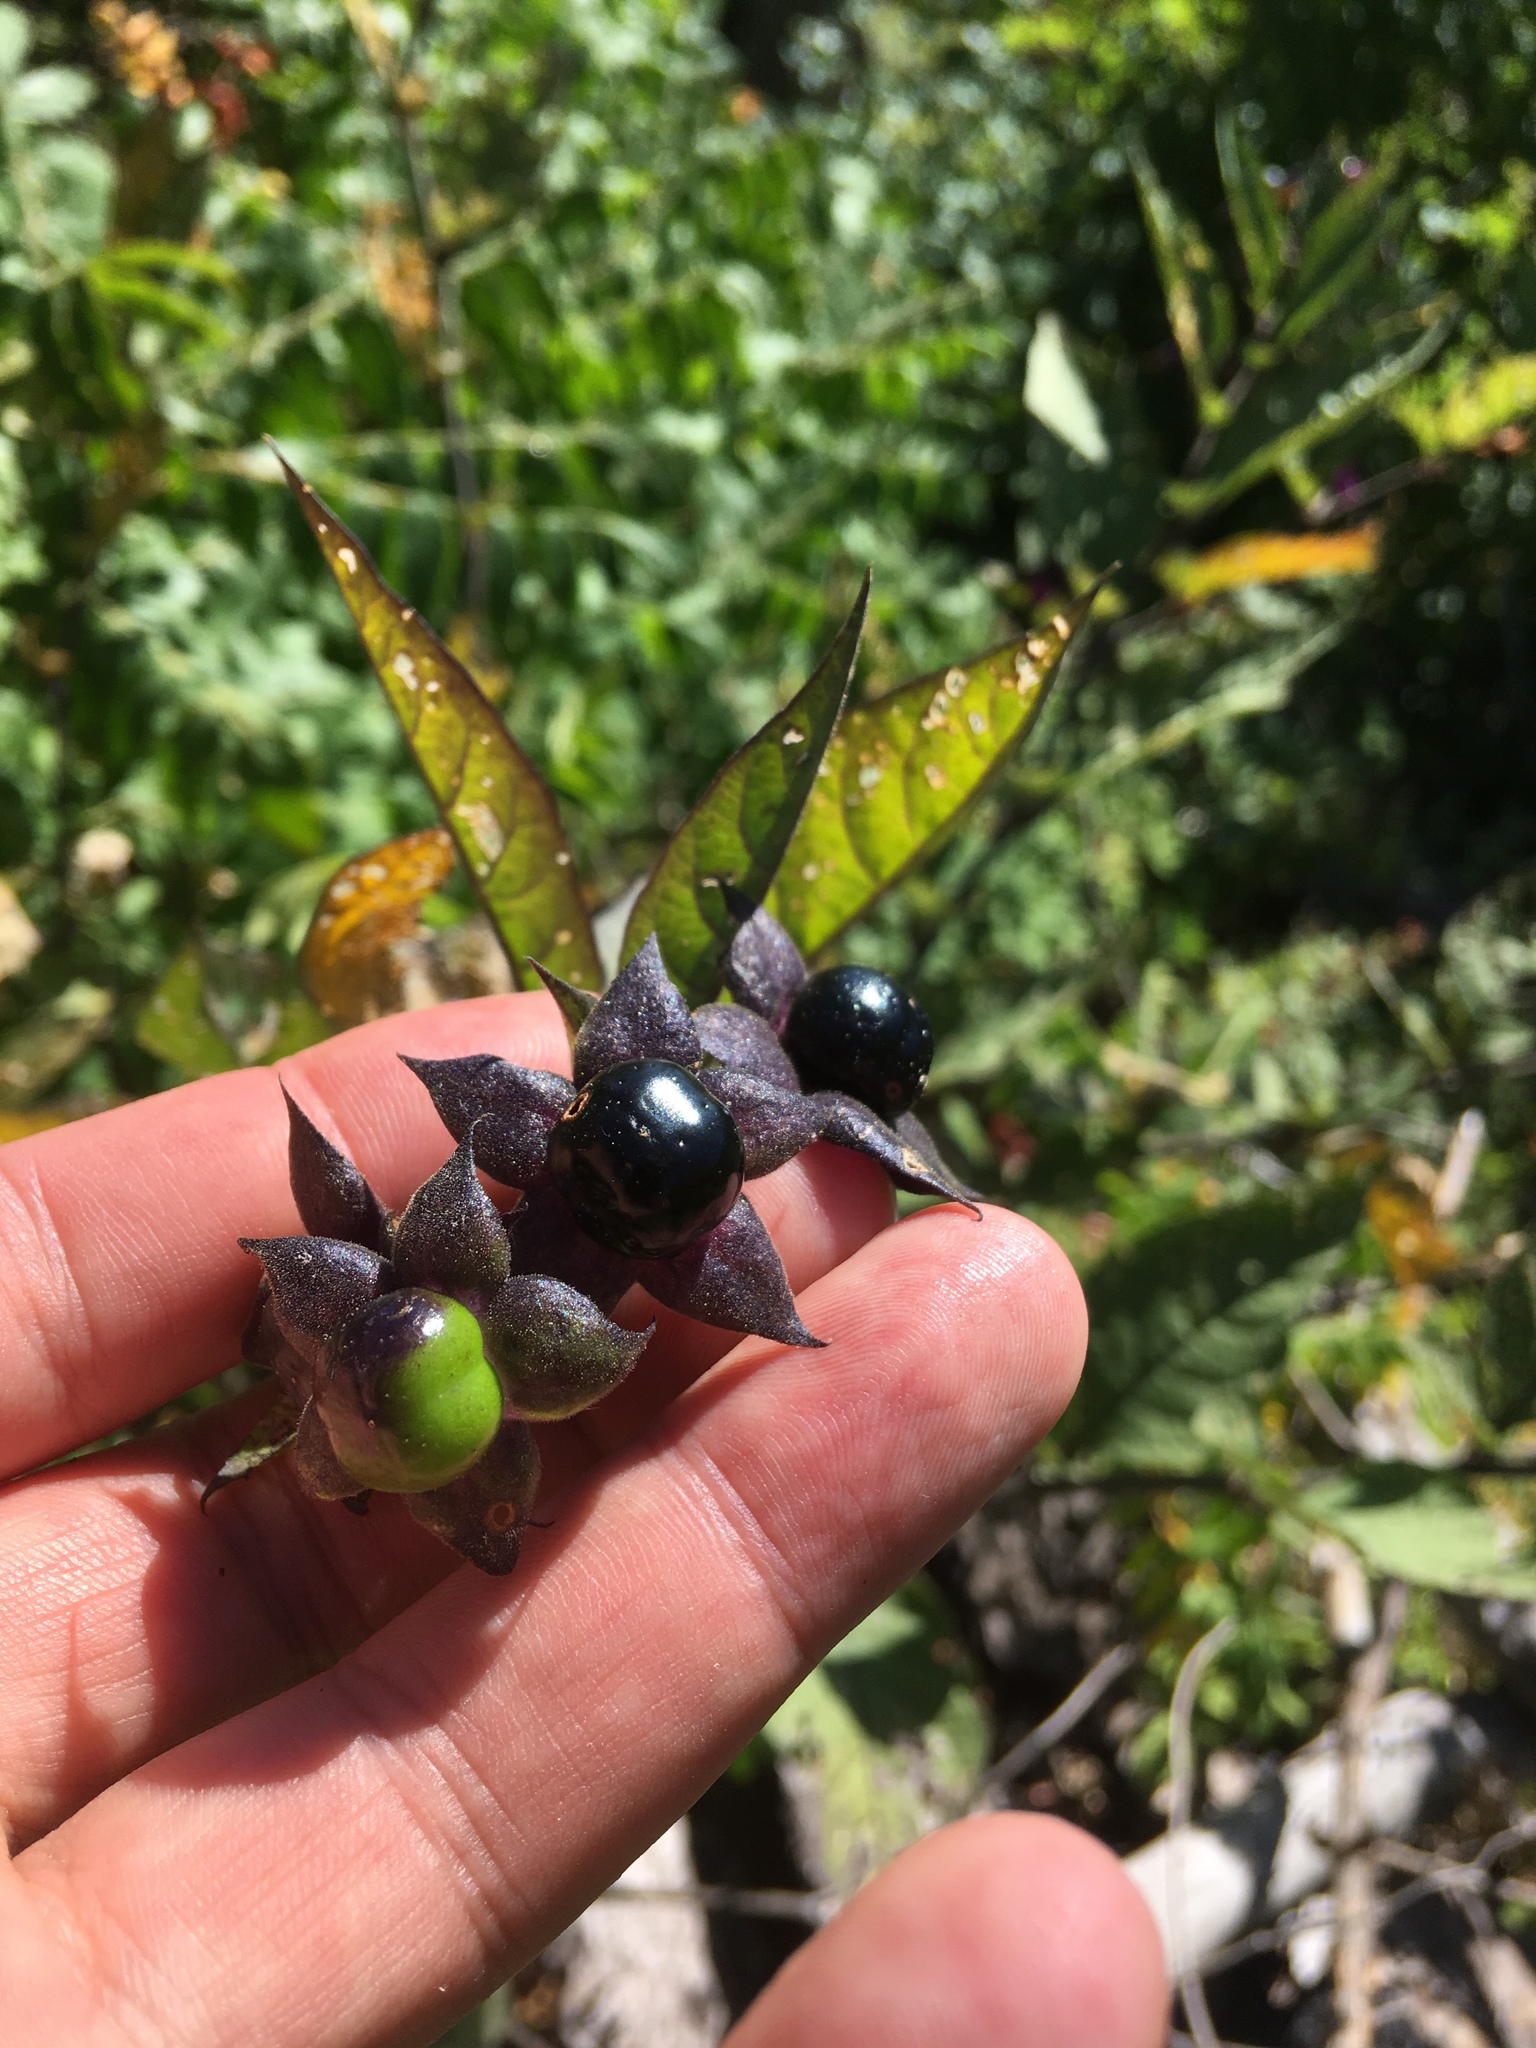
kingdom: Plantae
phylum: Tracheophyta
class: Magnoliopsida
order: Solanales
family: Solanaceae
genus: Atropa
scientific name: Atropa belladonna
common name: Deadly nightshade
